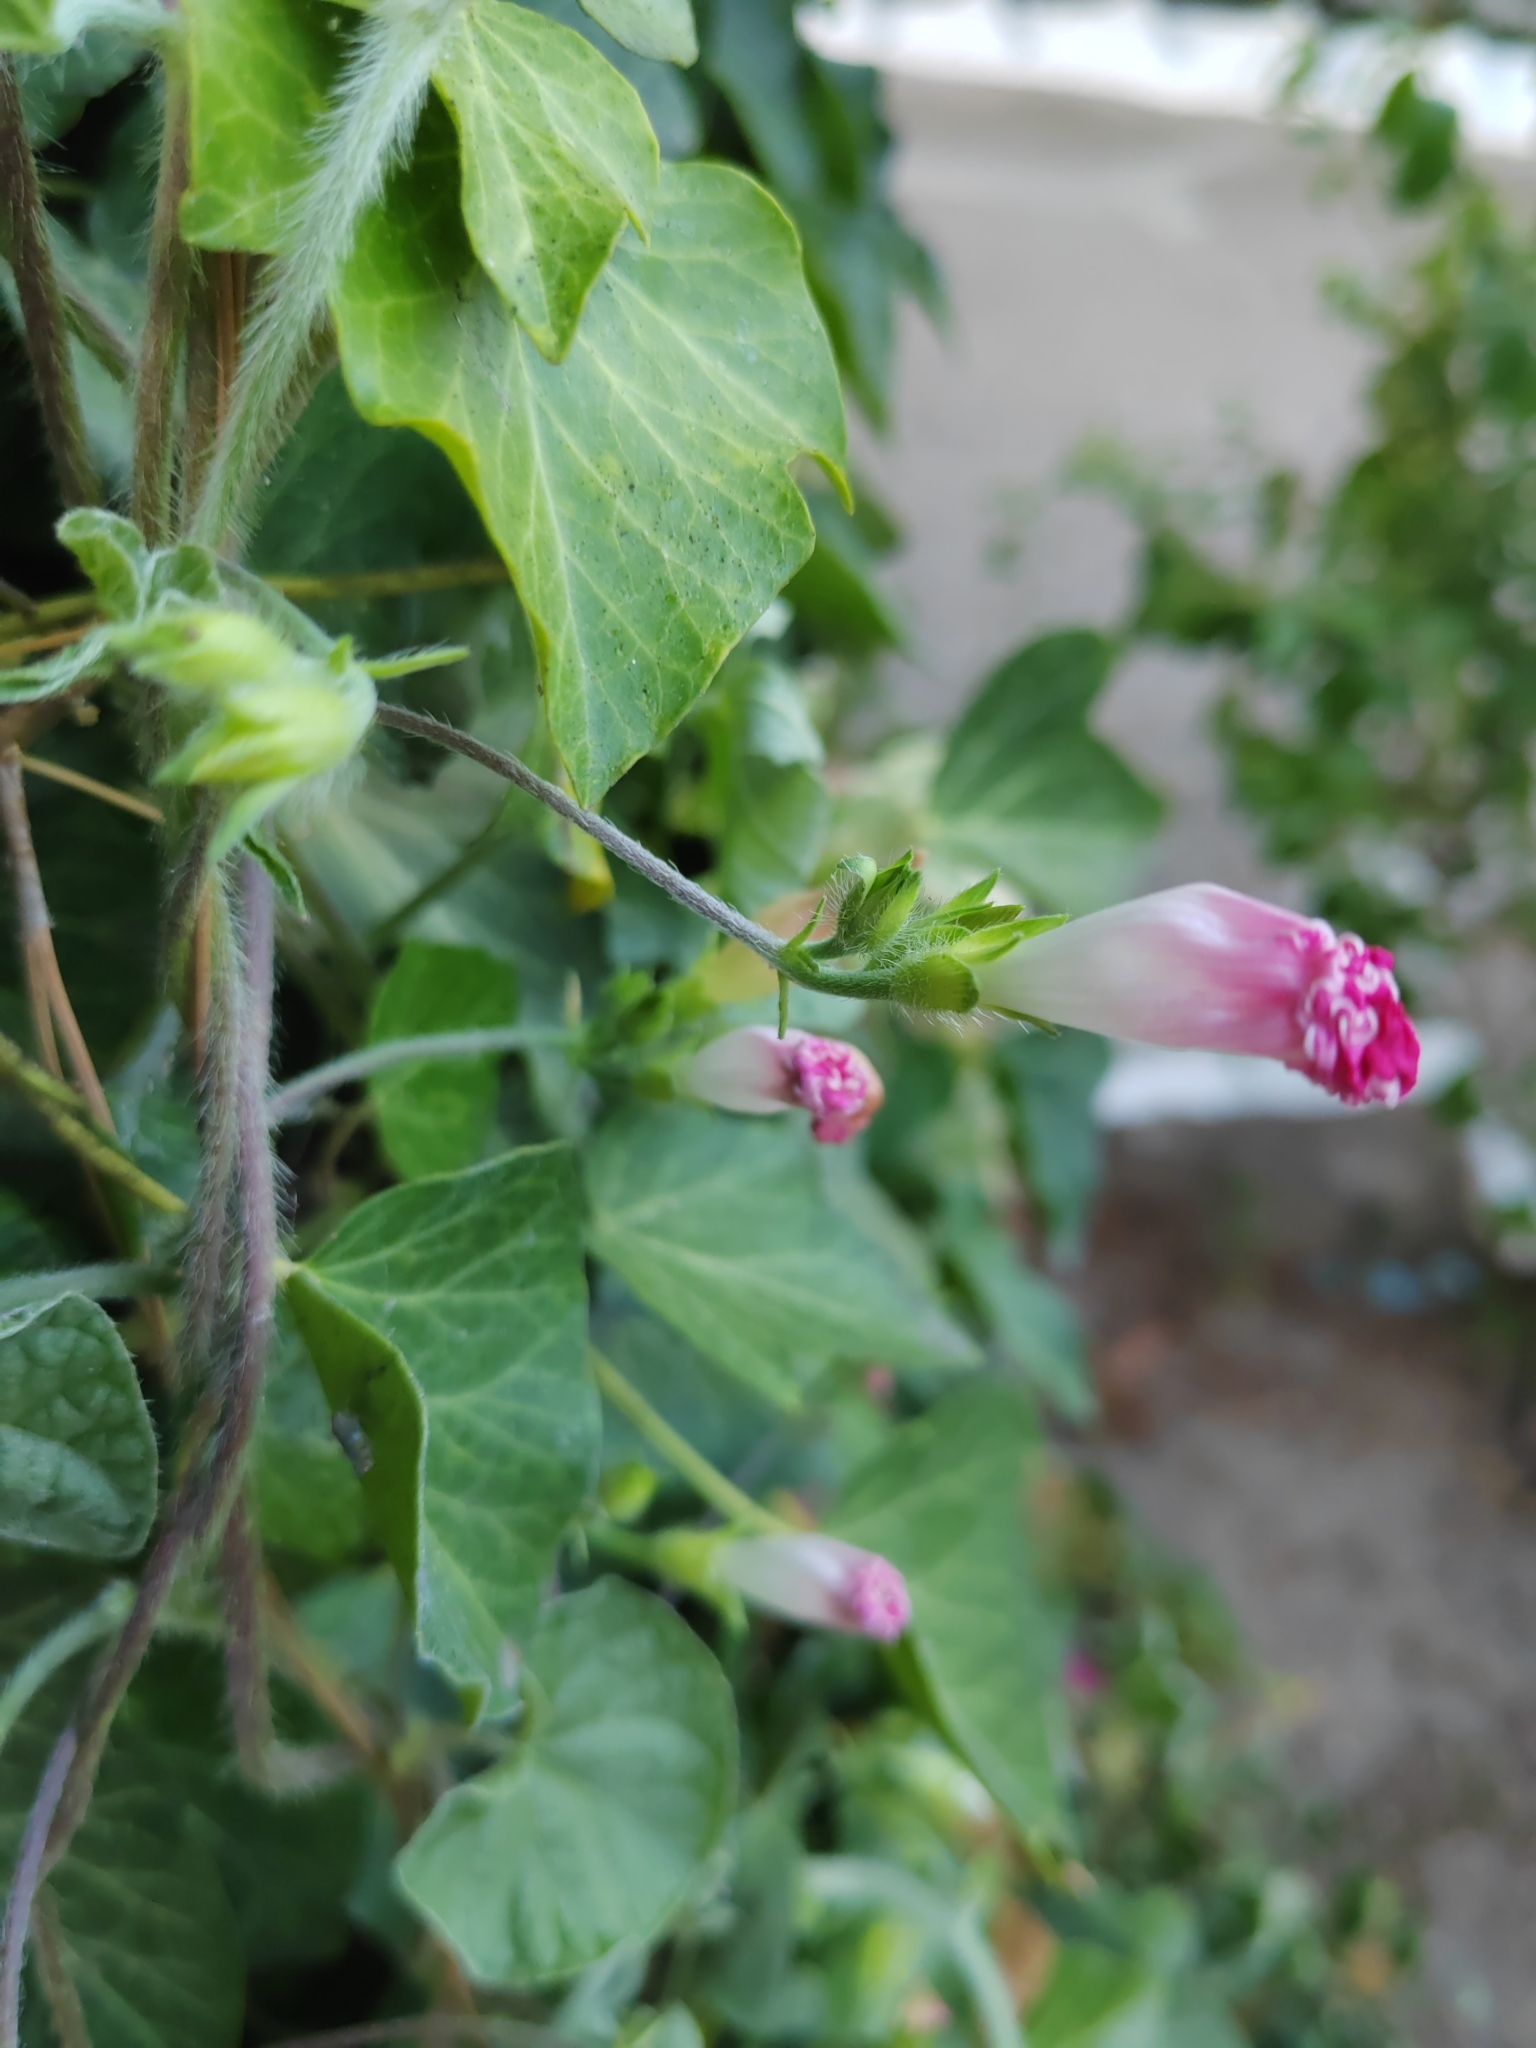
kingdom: Plantae
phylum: Tracheophyta
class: Magnoliopsida
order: Solanales
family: Convolvulaceae
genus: Ipomoea
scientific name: Ipomoea purpurea
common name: Common morning-glory
